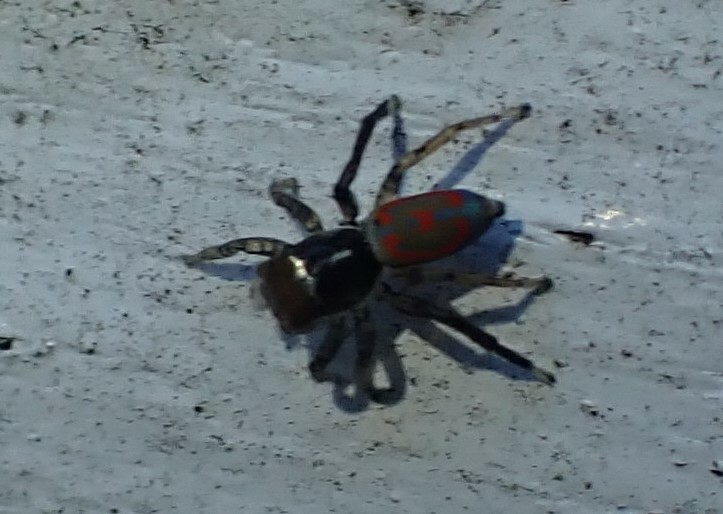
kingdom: Animalia
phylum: Arthropoda
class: Arachnida
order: Araneae
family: Salticidae
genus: Maratus
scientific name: Maratus pavonis
